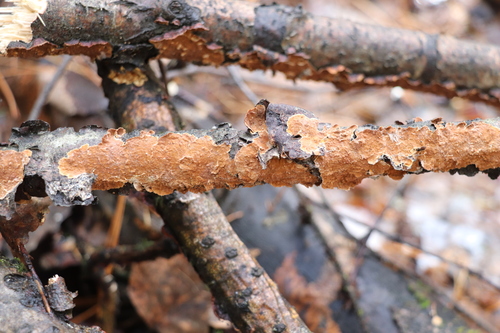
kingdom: Fungi
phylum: Basidiomycota
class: Agaricomycetes
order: Hymenochaetales
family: Hymenochaetaceae
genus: Hydnoporia
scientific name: Hydnoporia tabacina
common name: Willow glue
